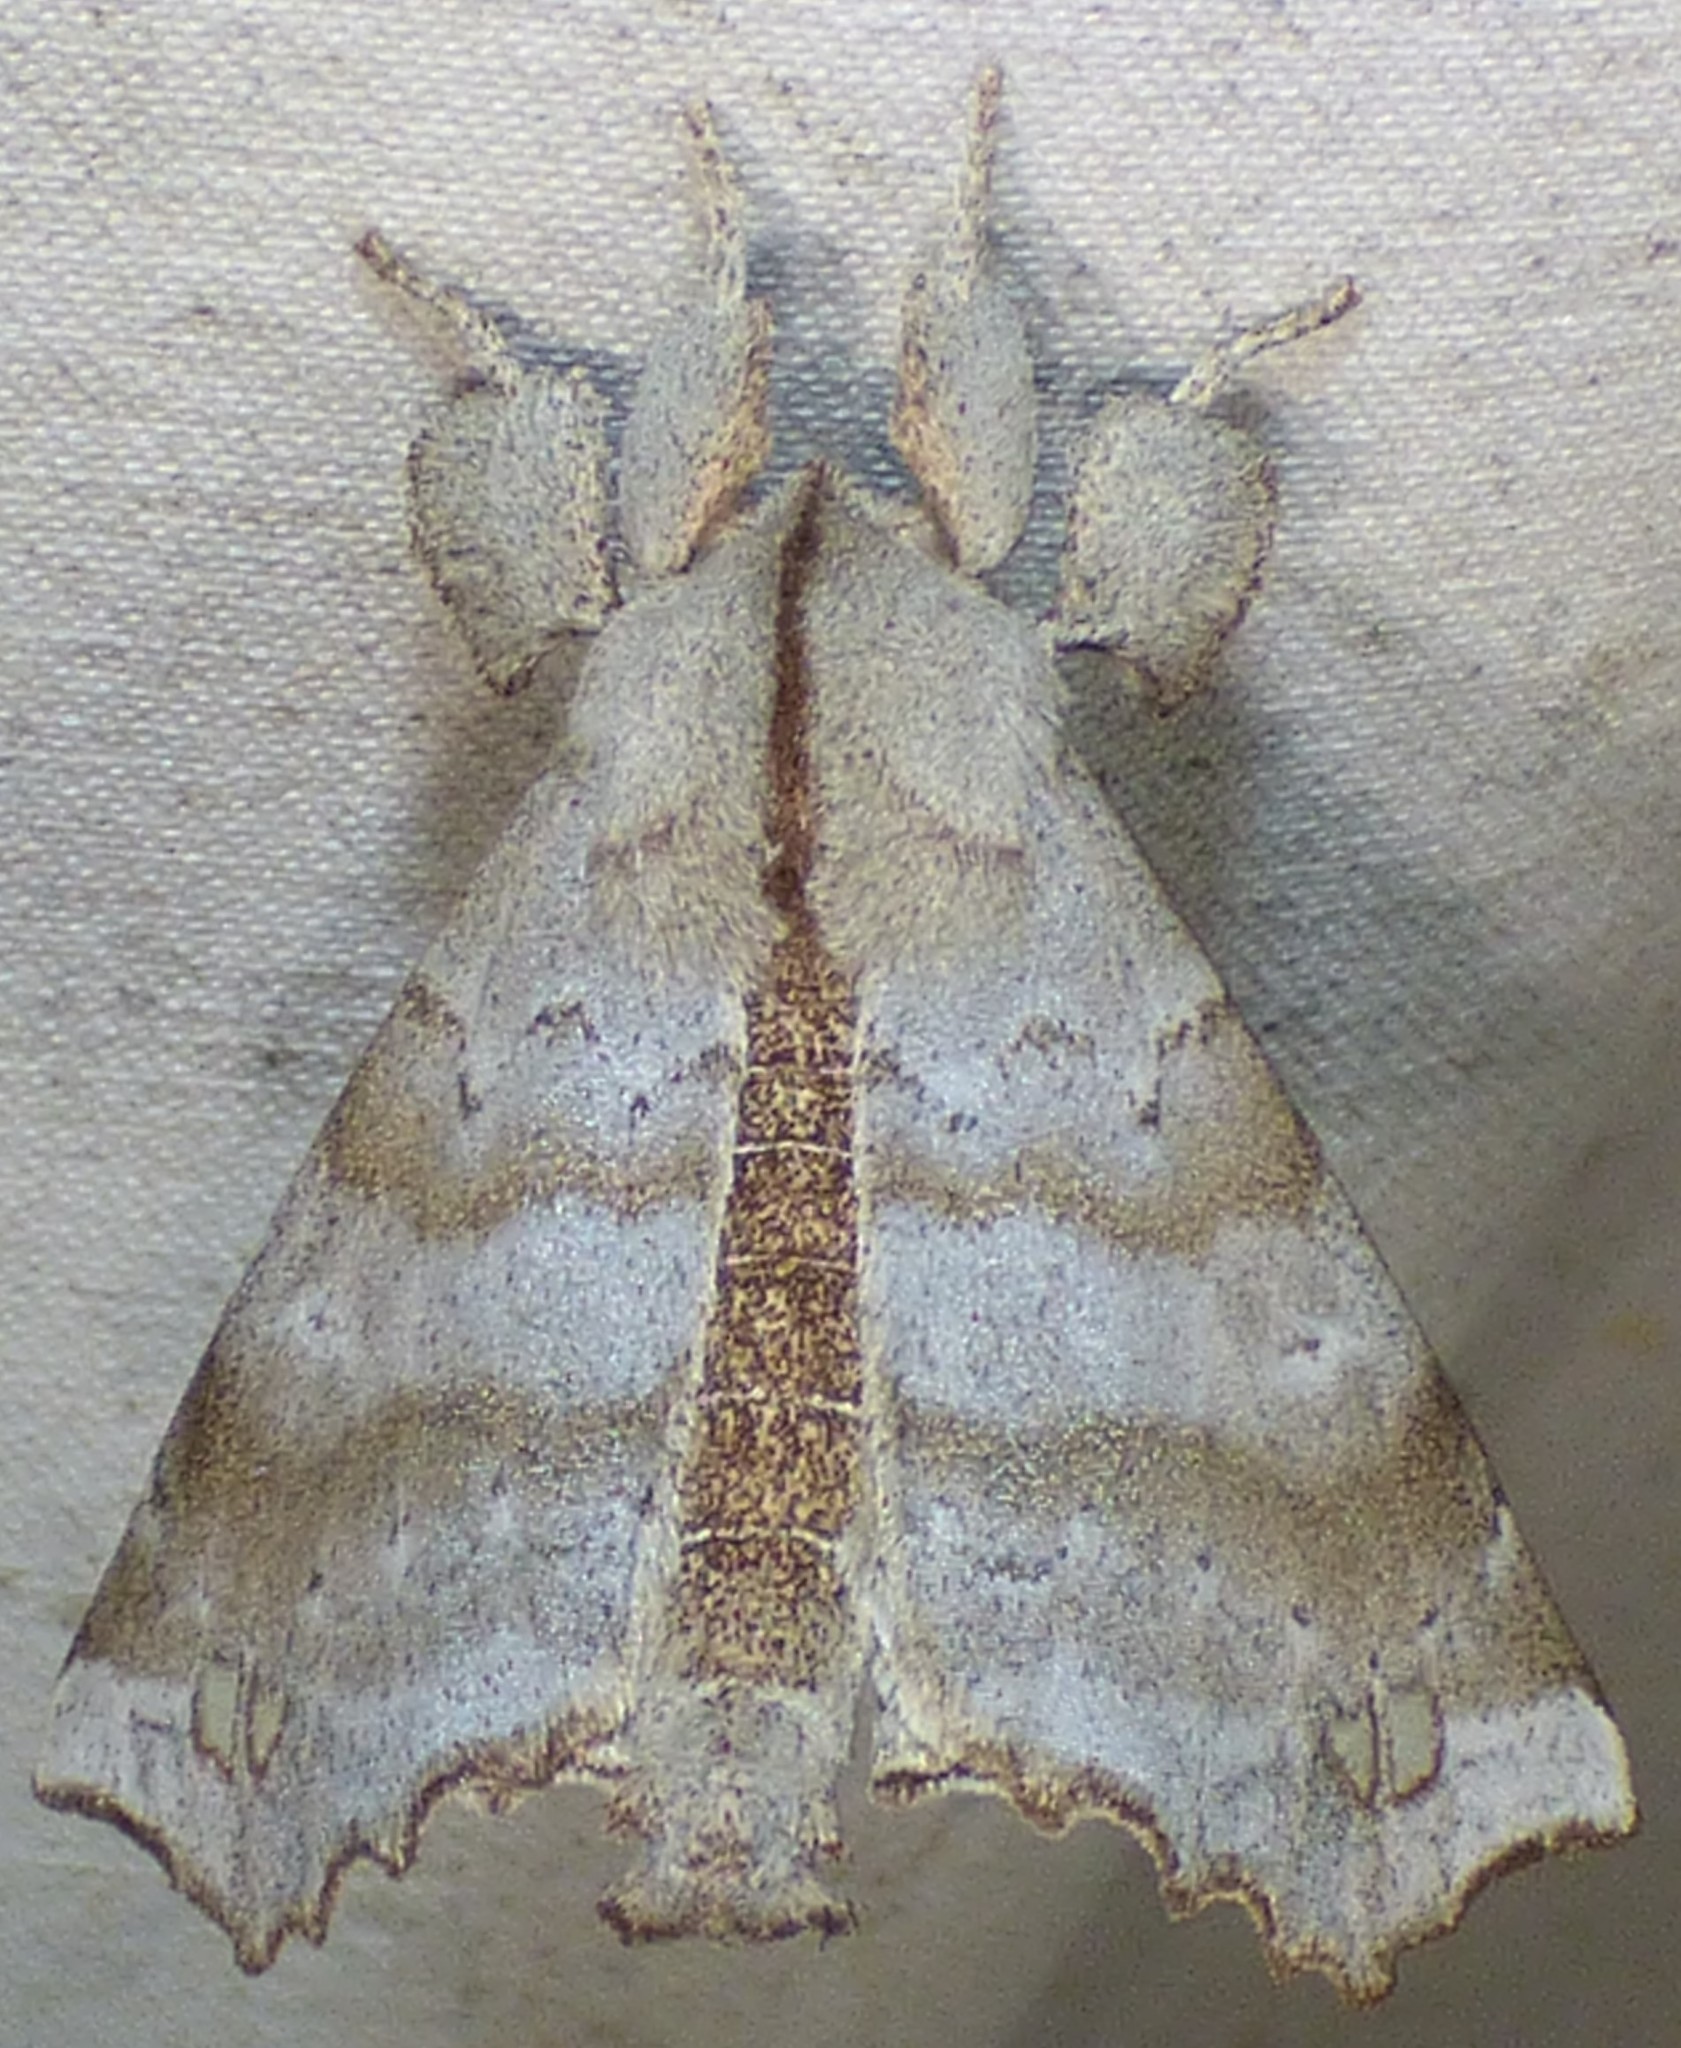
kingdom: Animalia
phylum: Arthropoda
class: Insecta
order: Lepidoptera
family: Apatelodidae
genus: Olceclostera
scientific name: Olceclostera angelica
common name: Angel moth
